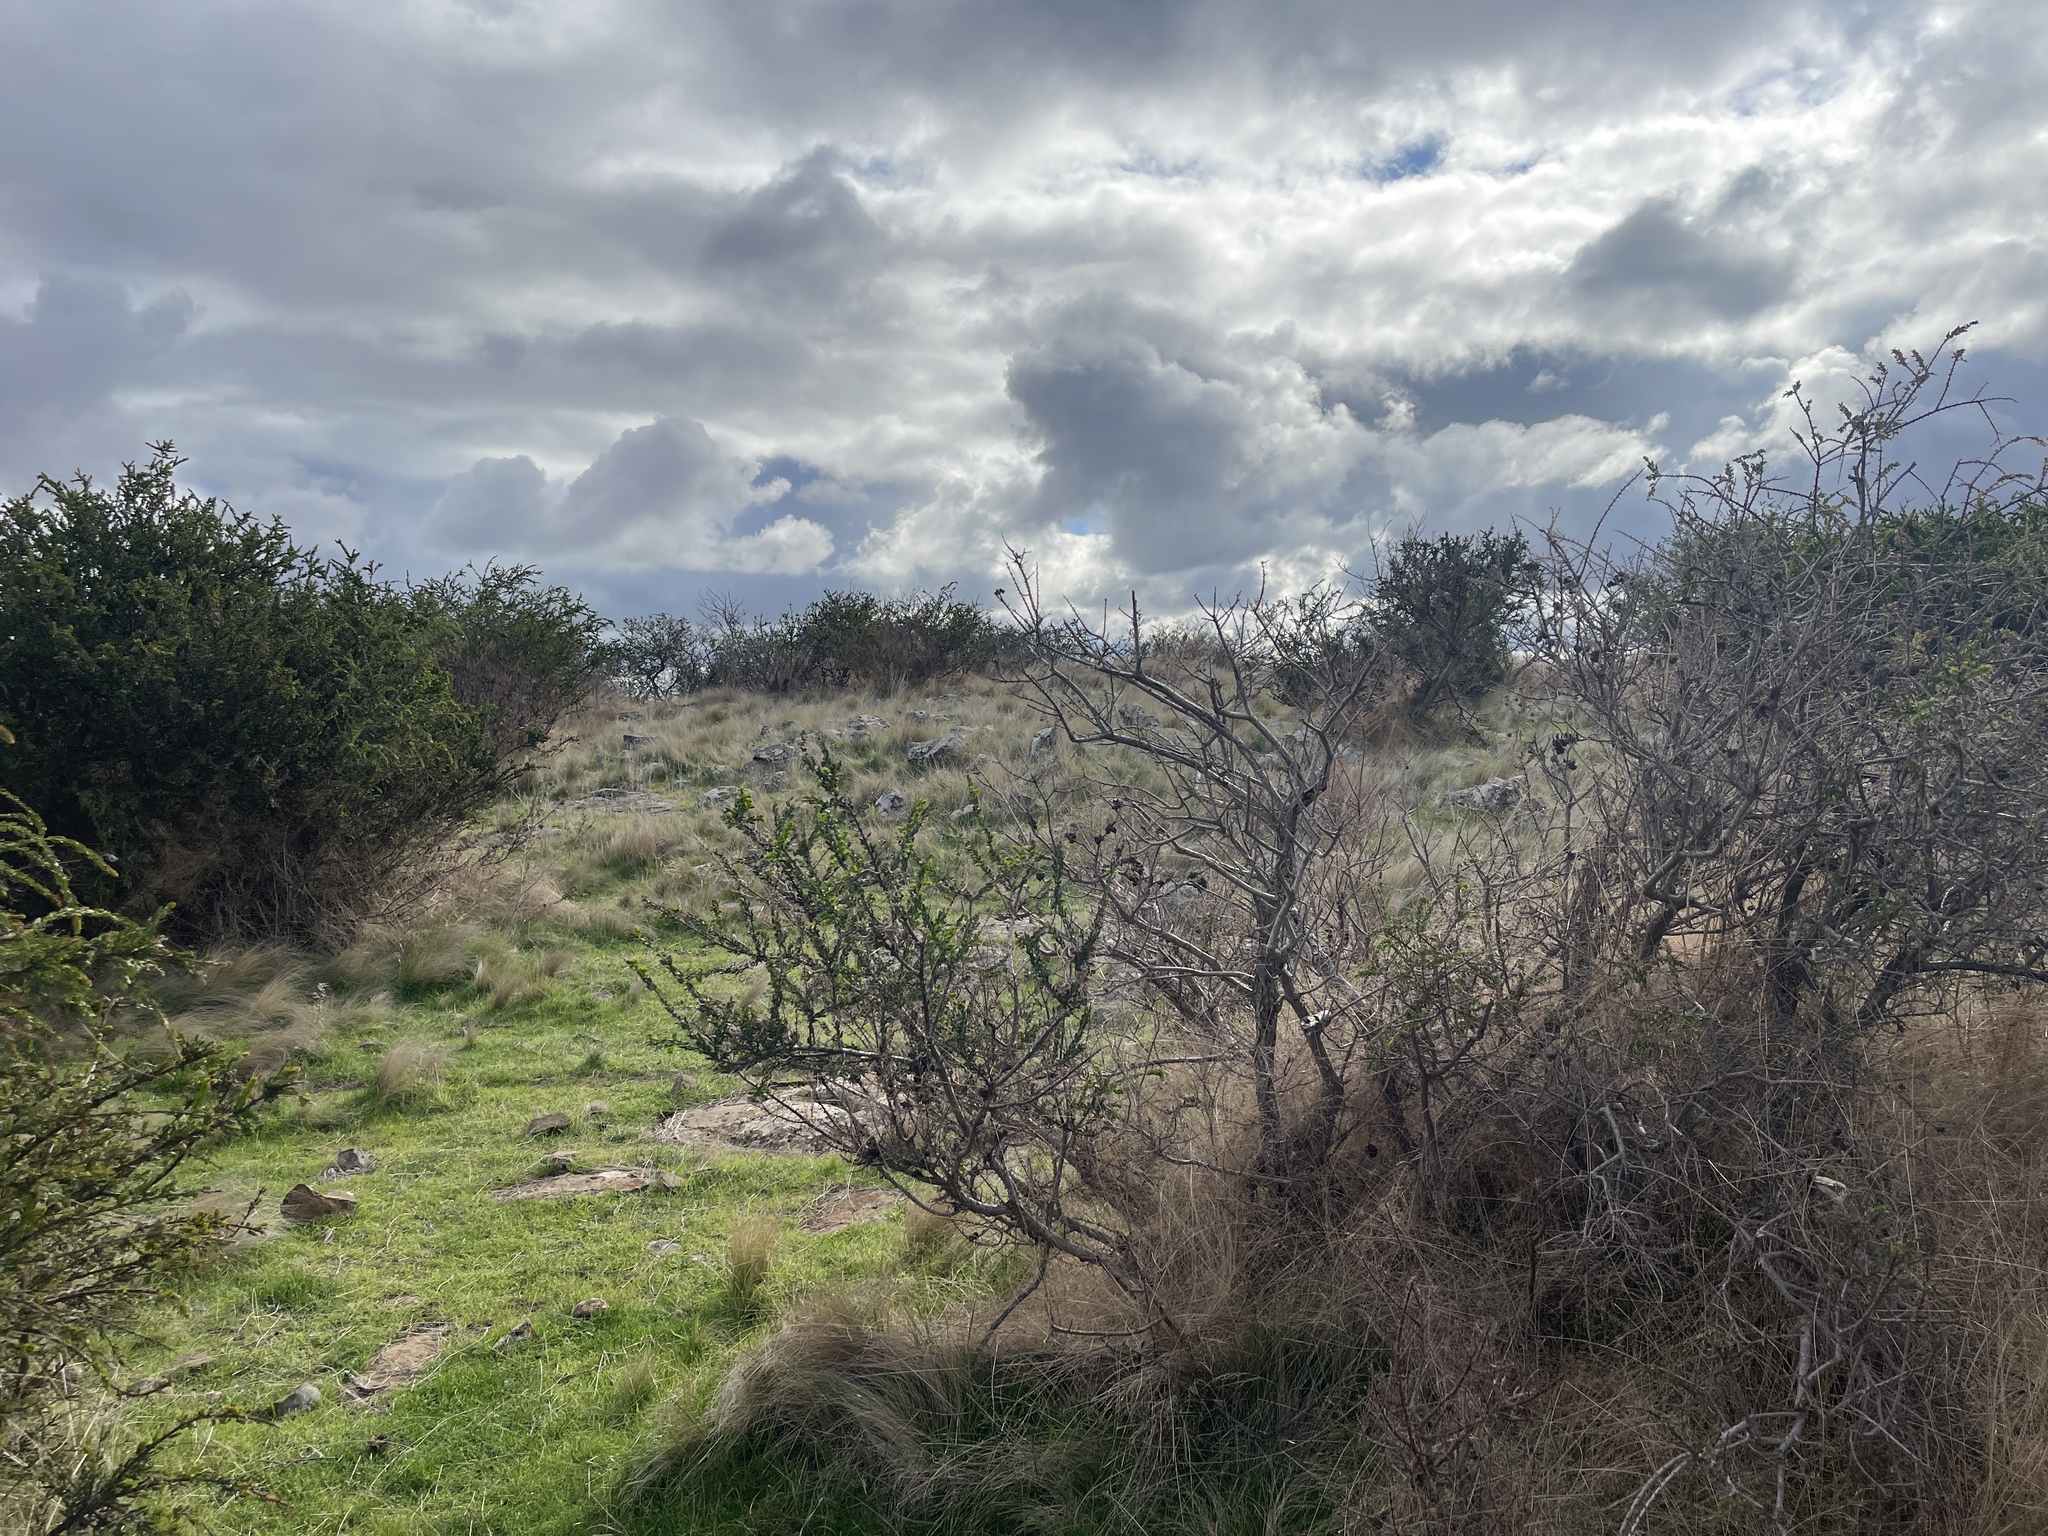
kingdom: Plantae
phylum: Tracheophyta
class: Magnoliopsida
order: Fabales
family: Fabaceae
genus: Acacia
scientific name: Acacia paradoxa
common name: Paradox acacia
